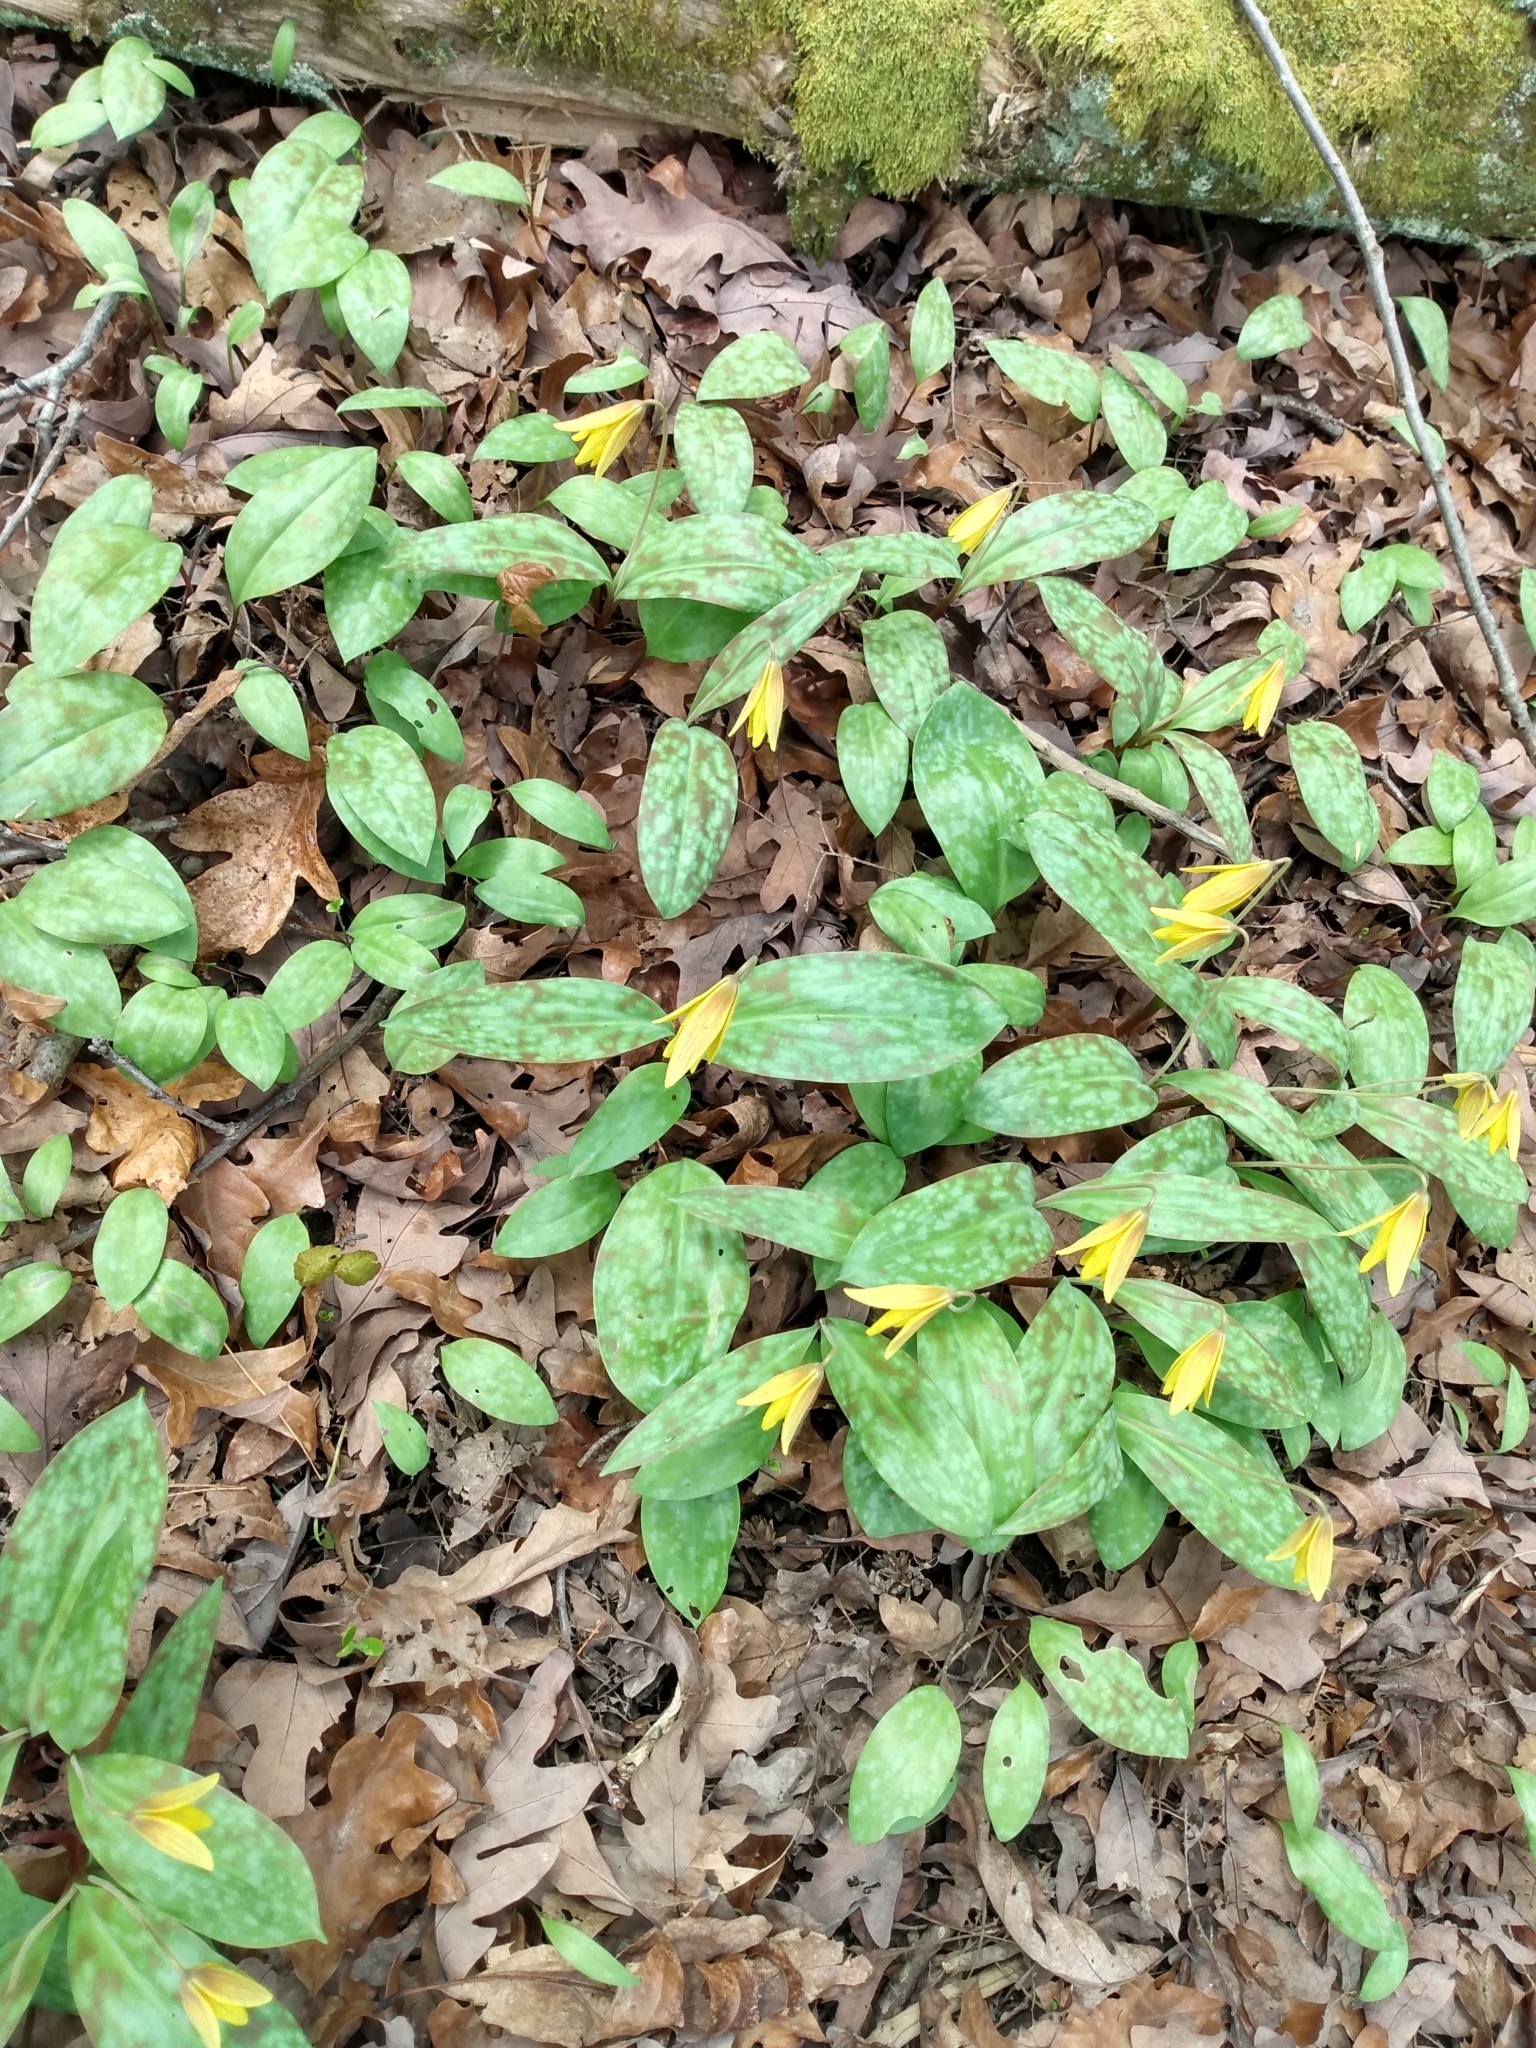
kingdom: Plantae
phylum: Tracheophyta
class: Liliopsida
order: Liliales
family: Liliaceae
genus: Erythronium
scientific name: Erythronium americanum
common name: Yellow adder's-tongue
